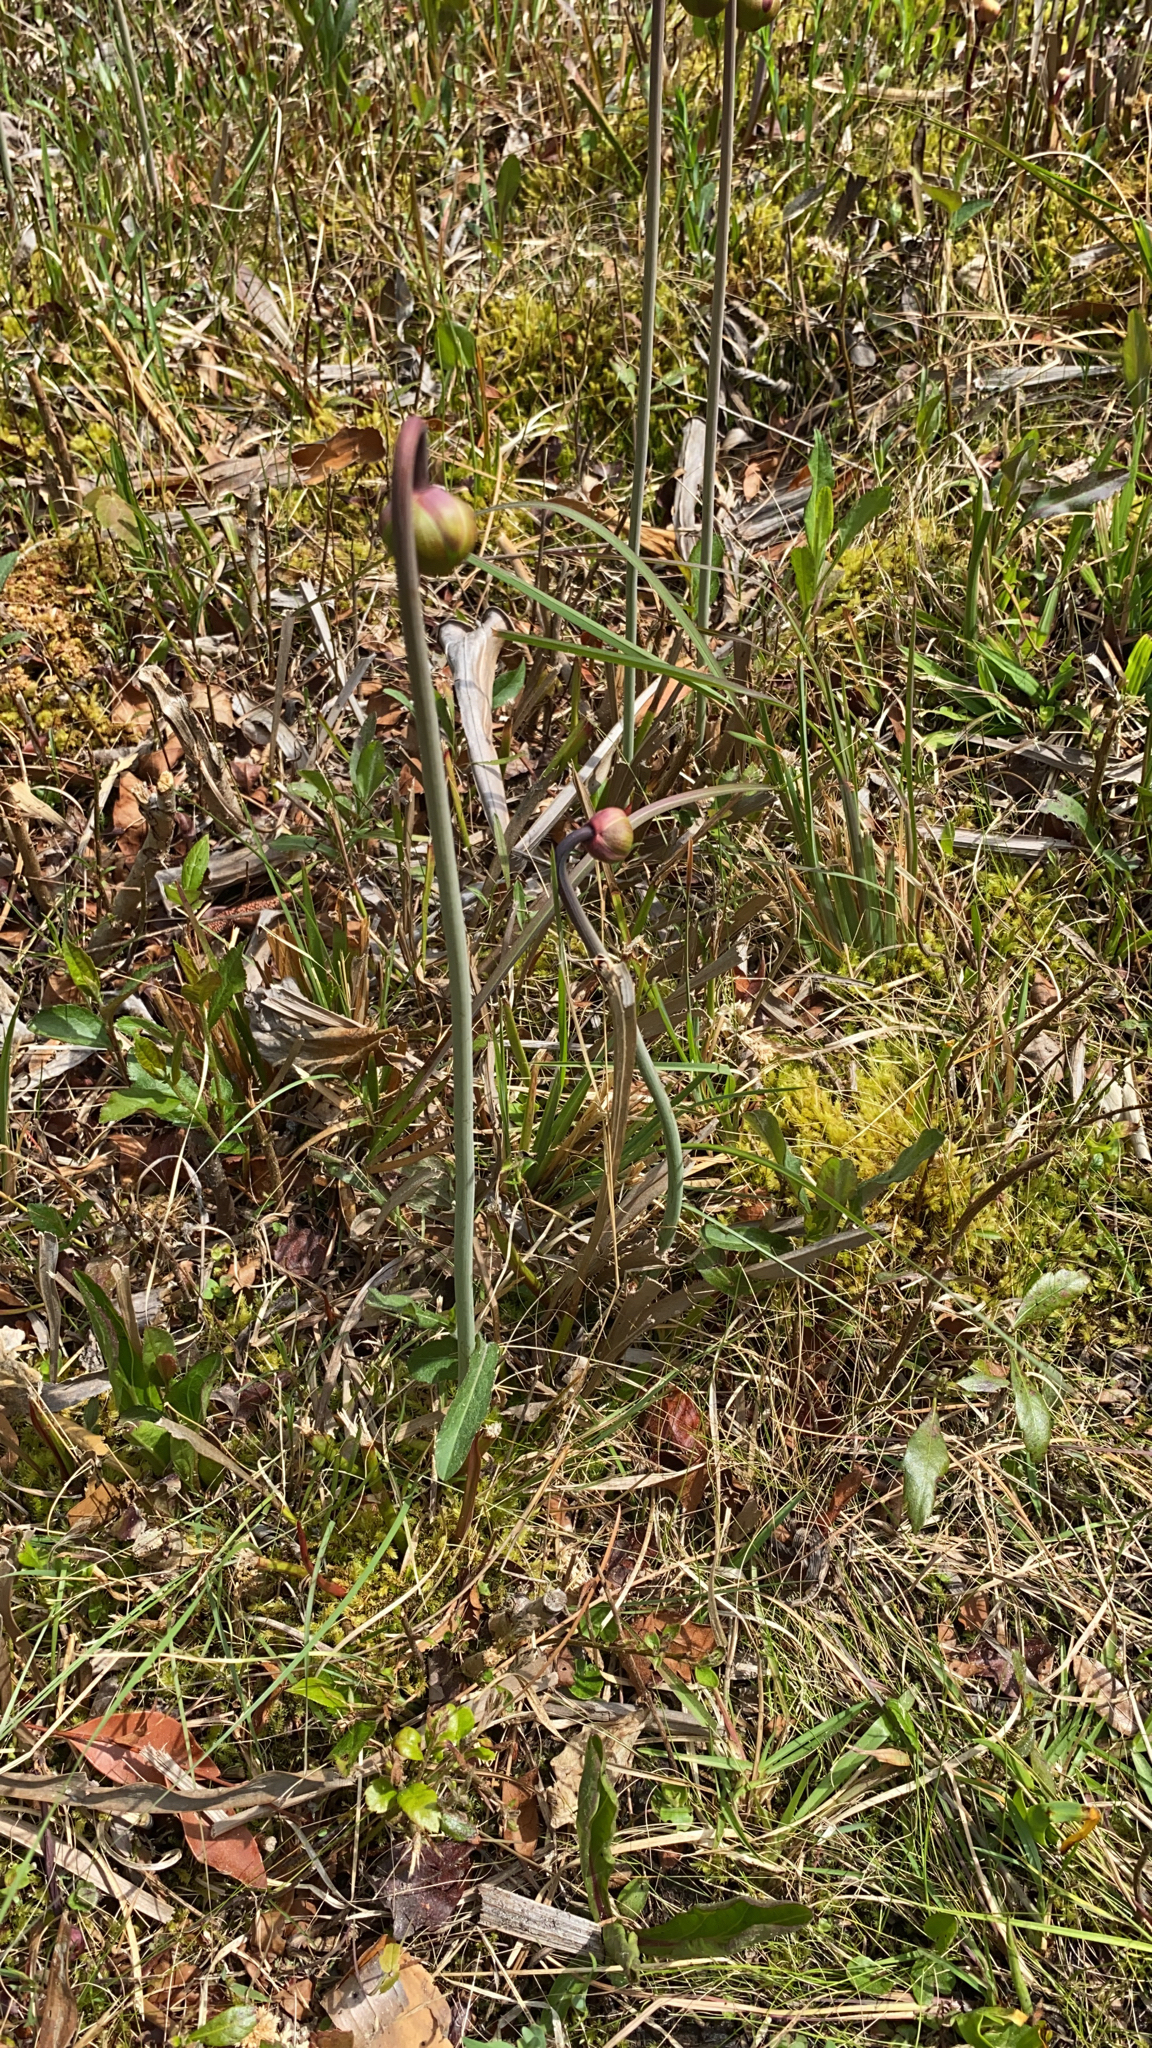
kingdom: Plantae
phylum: Tracheophyta
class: Magnoliopsida
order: Ericales
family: Sarraceniaceae
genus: Sarracenia
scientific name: Sarracenia flava
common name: Trumpets
